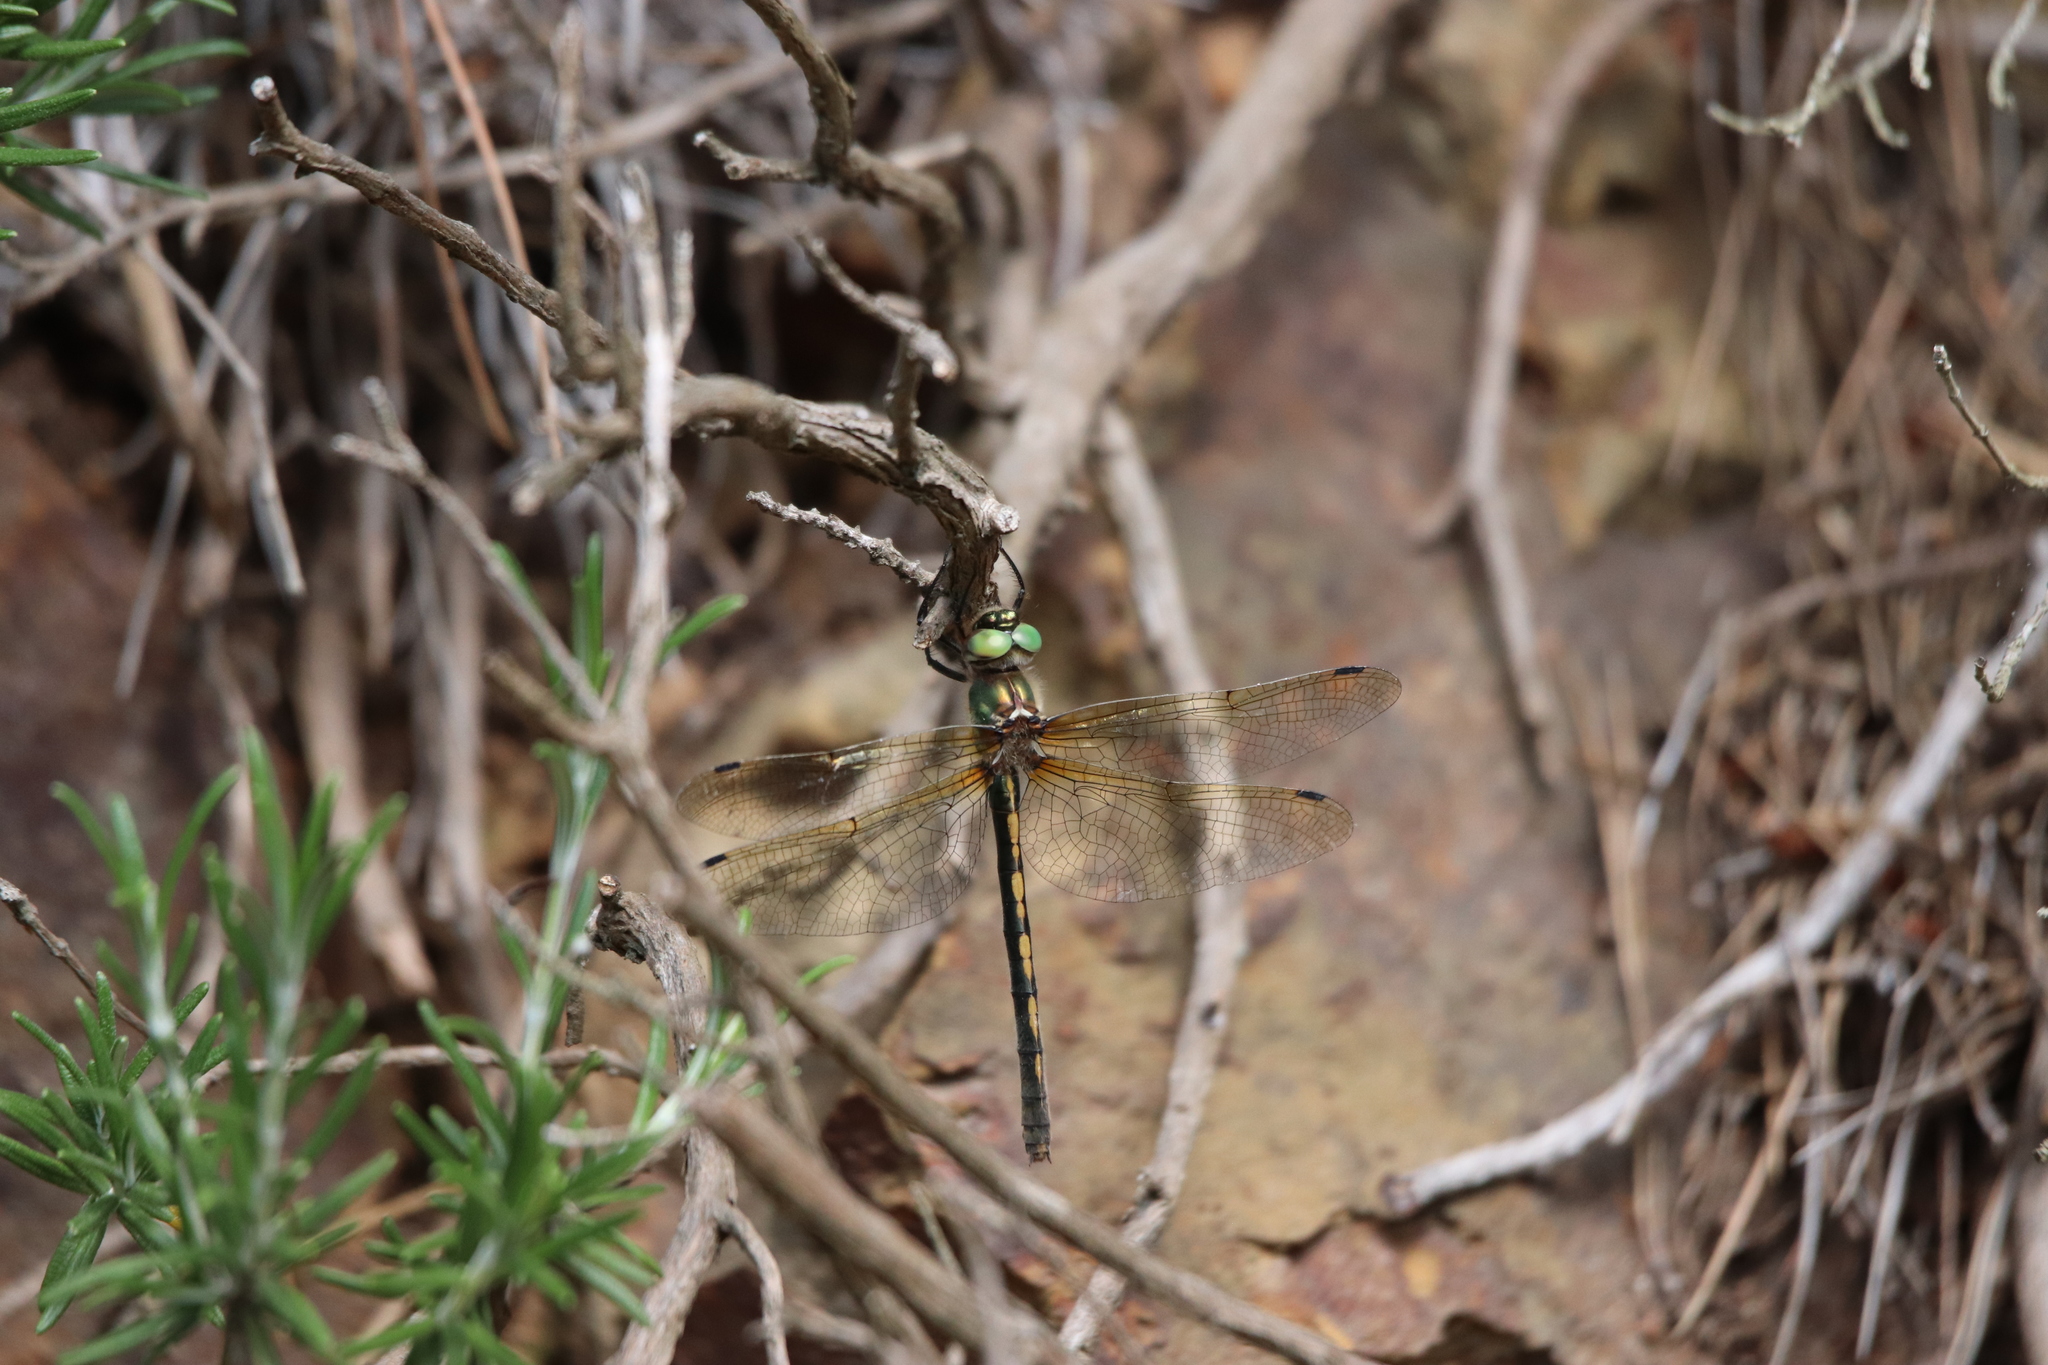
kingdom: Animalia
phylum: Arthropoda
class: Insecta
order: Odonata
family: Corduliidae
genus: Oxygastra
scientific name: Oxygastra curtisii
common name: Orange-spotted emerald
